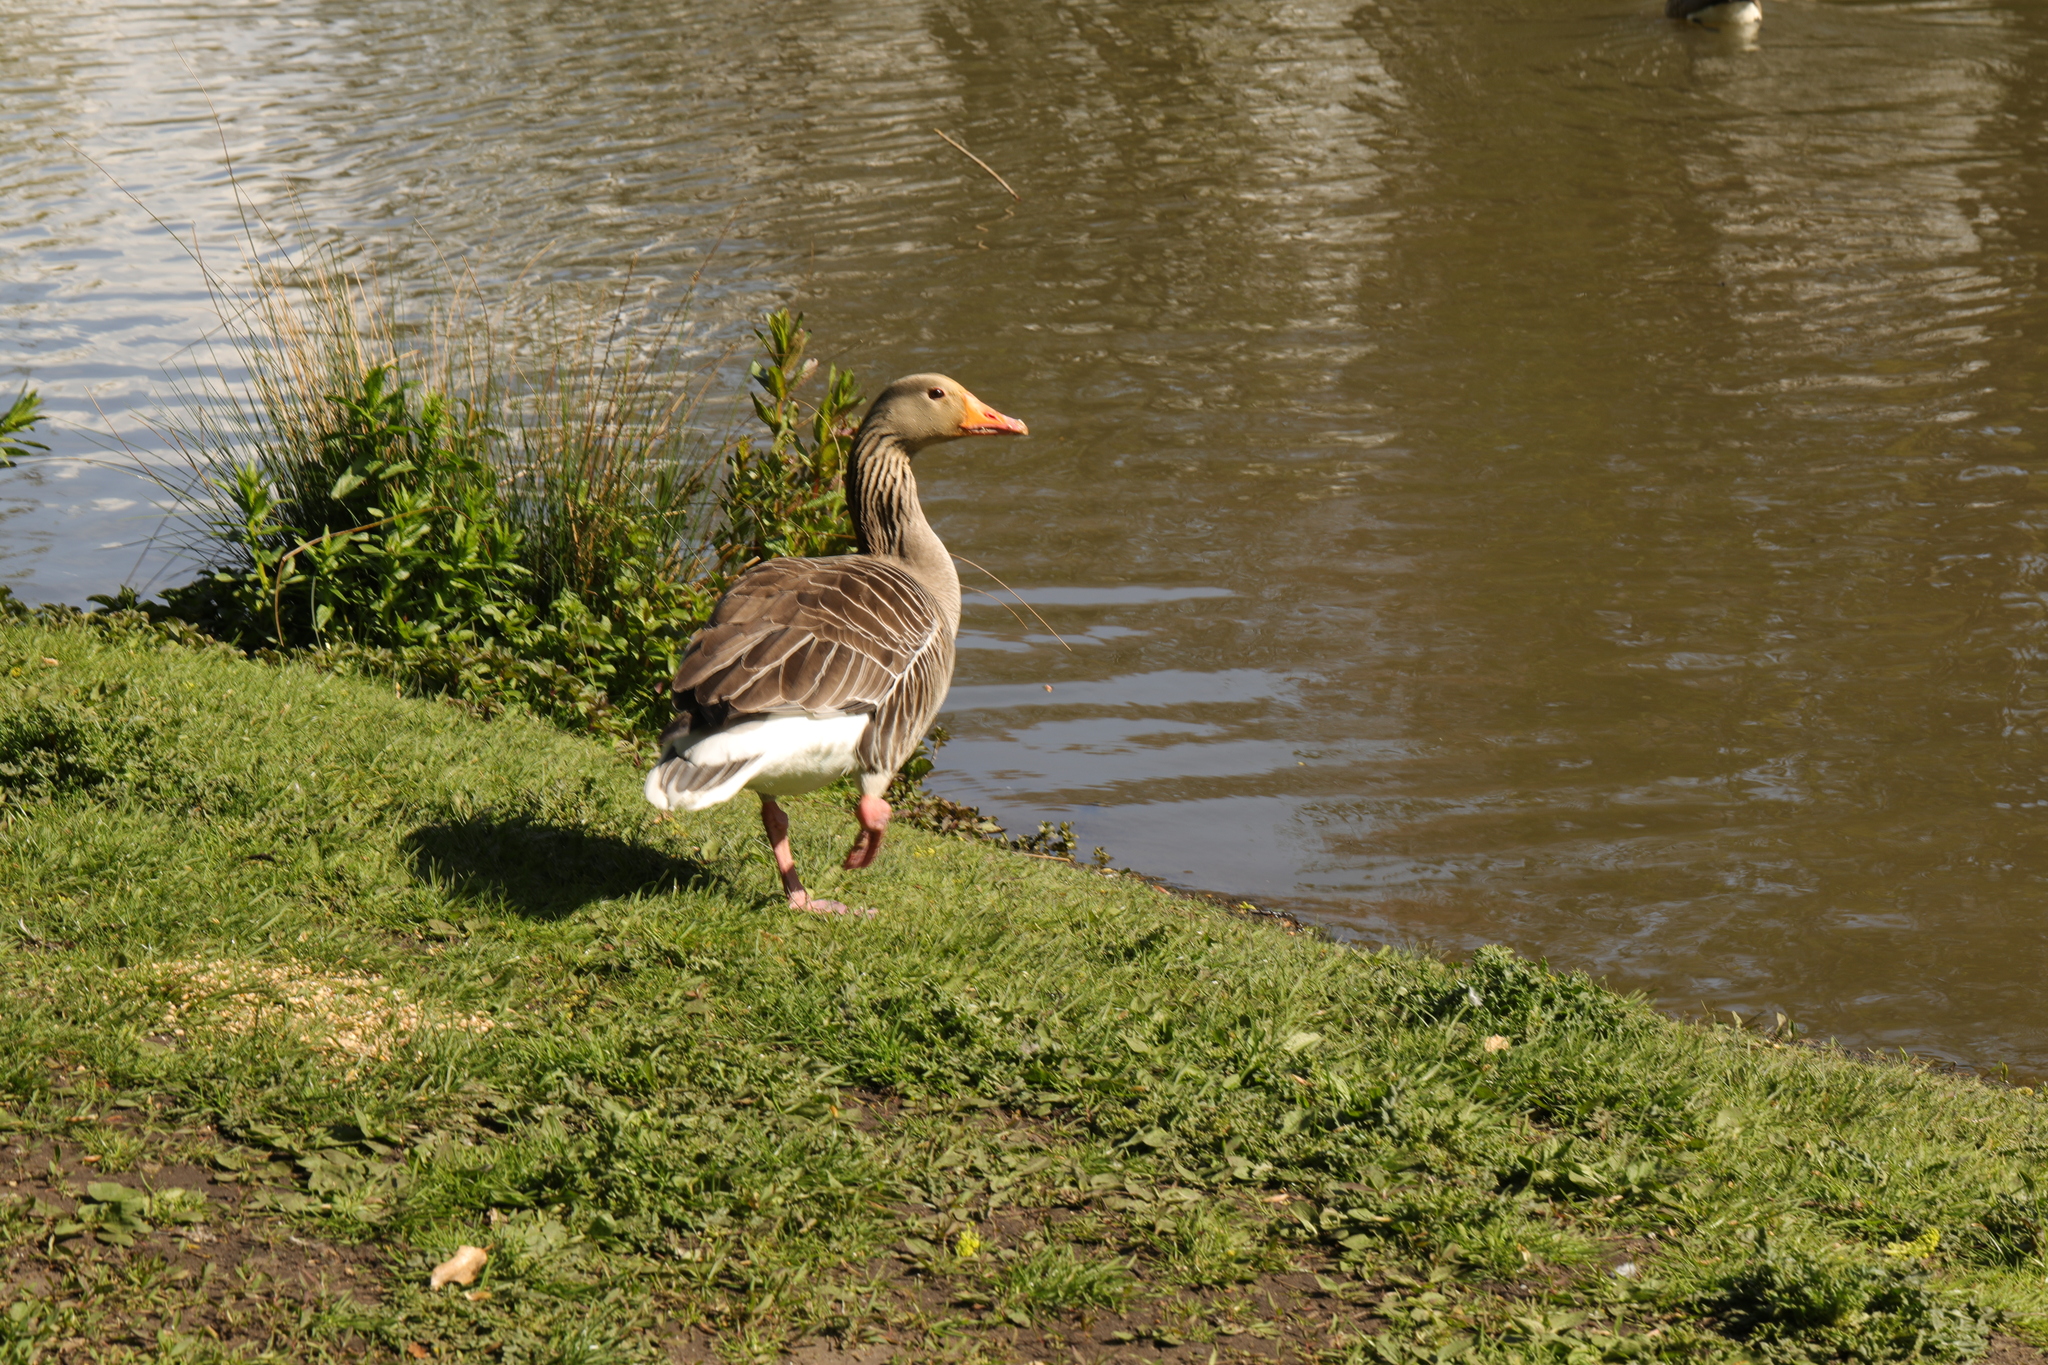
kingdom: Animalia
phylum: Chordata
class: Aves
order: Anseriformes
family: Anatidae
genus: Anser
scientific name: Anser anser
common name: Greylag goose
